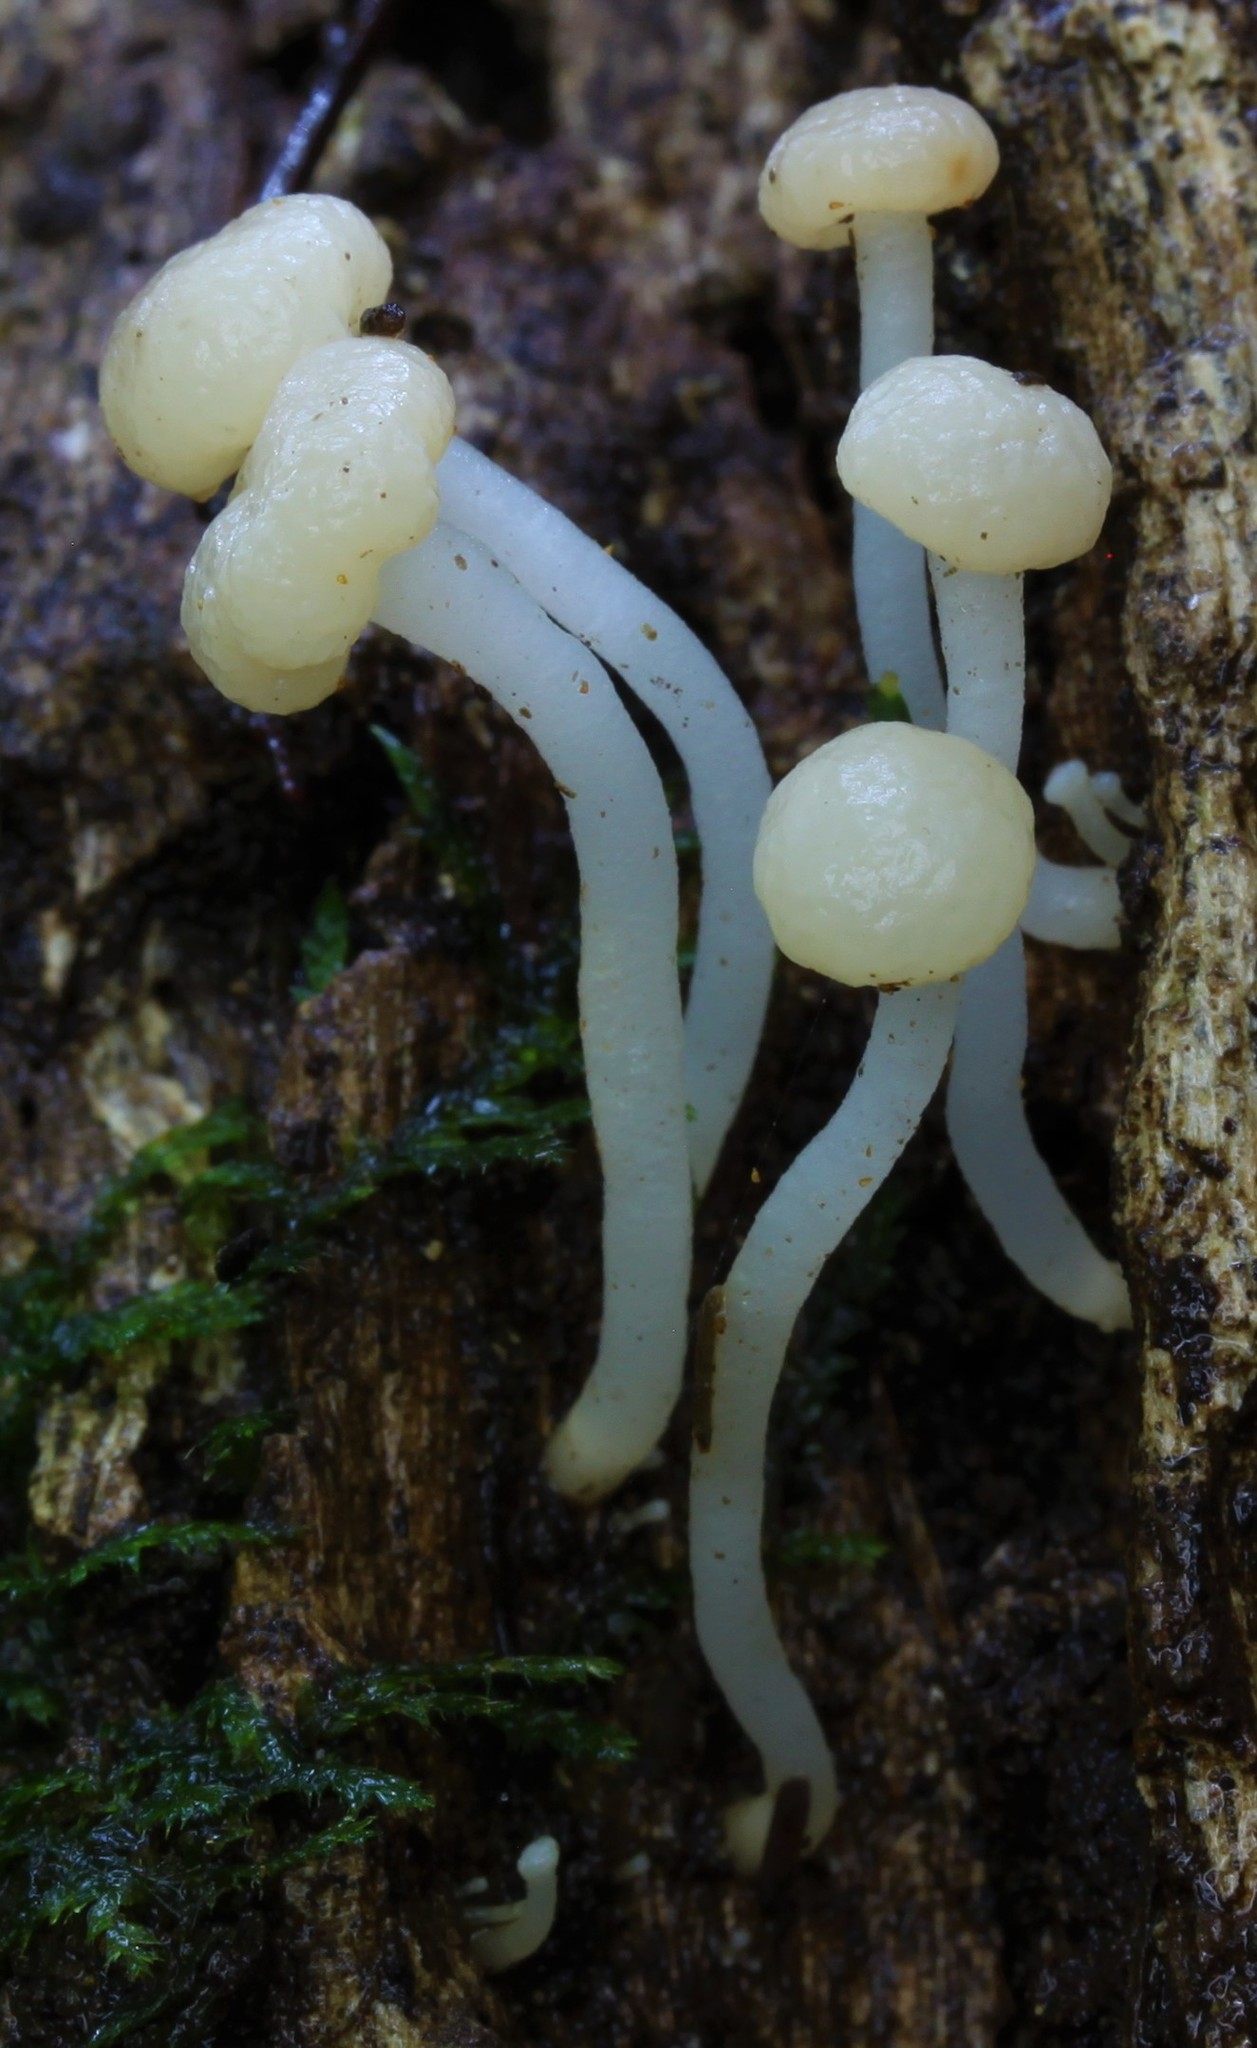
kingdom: Fungi
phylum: Ascomycota
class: Leotiomycetes
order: Helotiales
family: Vibrisseaceae
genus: Vibrissea
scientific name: Vibrissea dura
